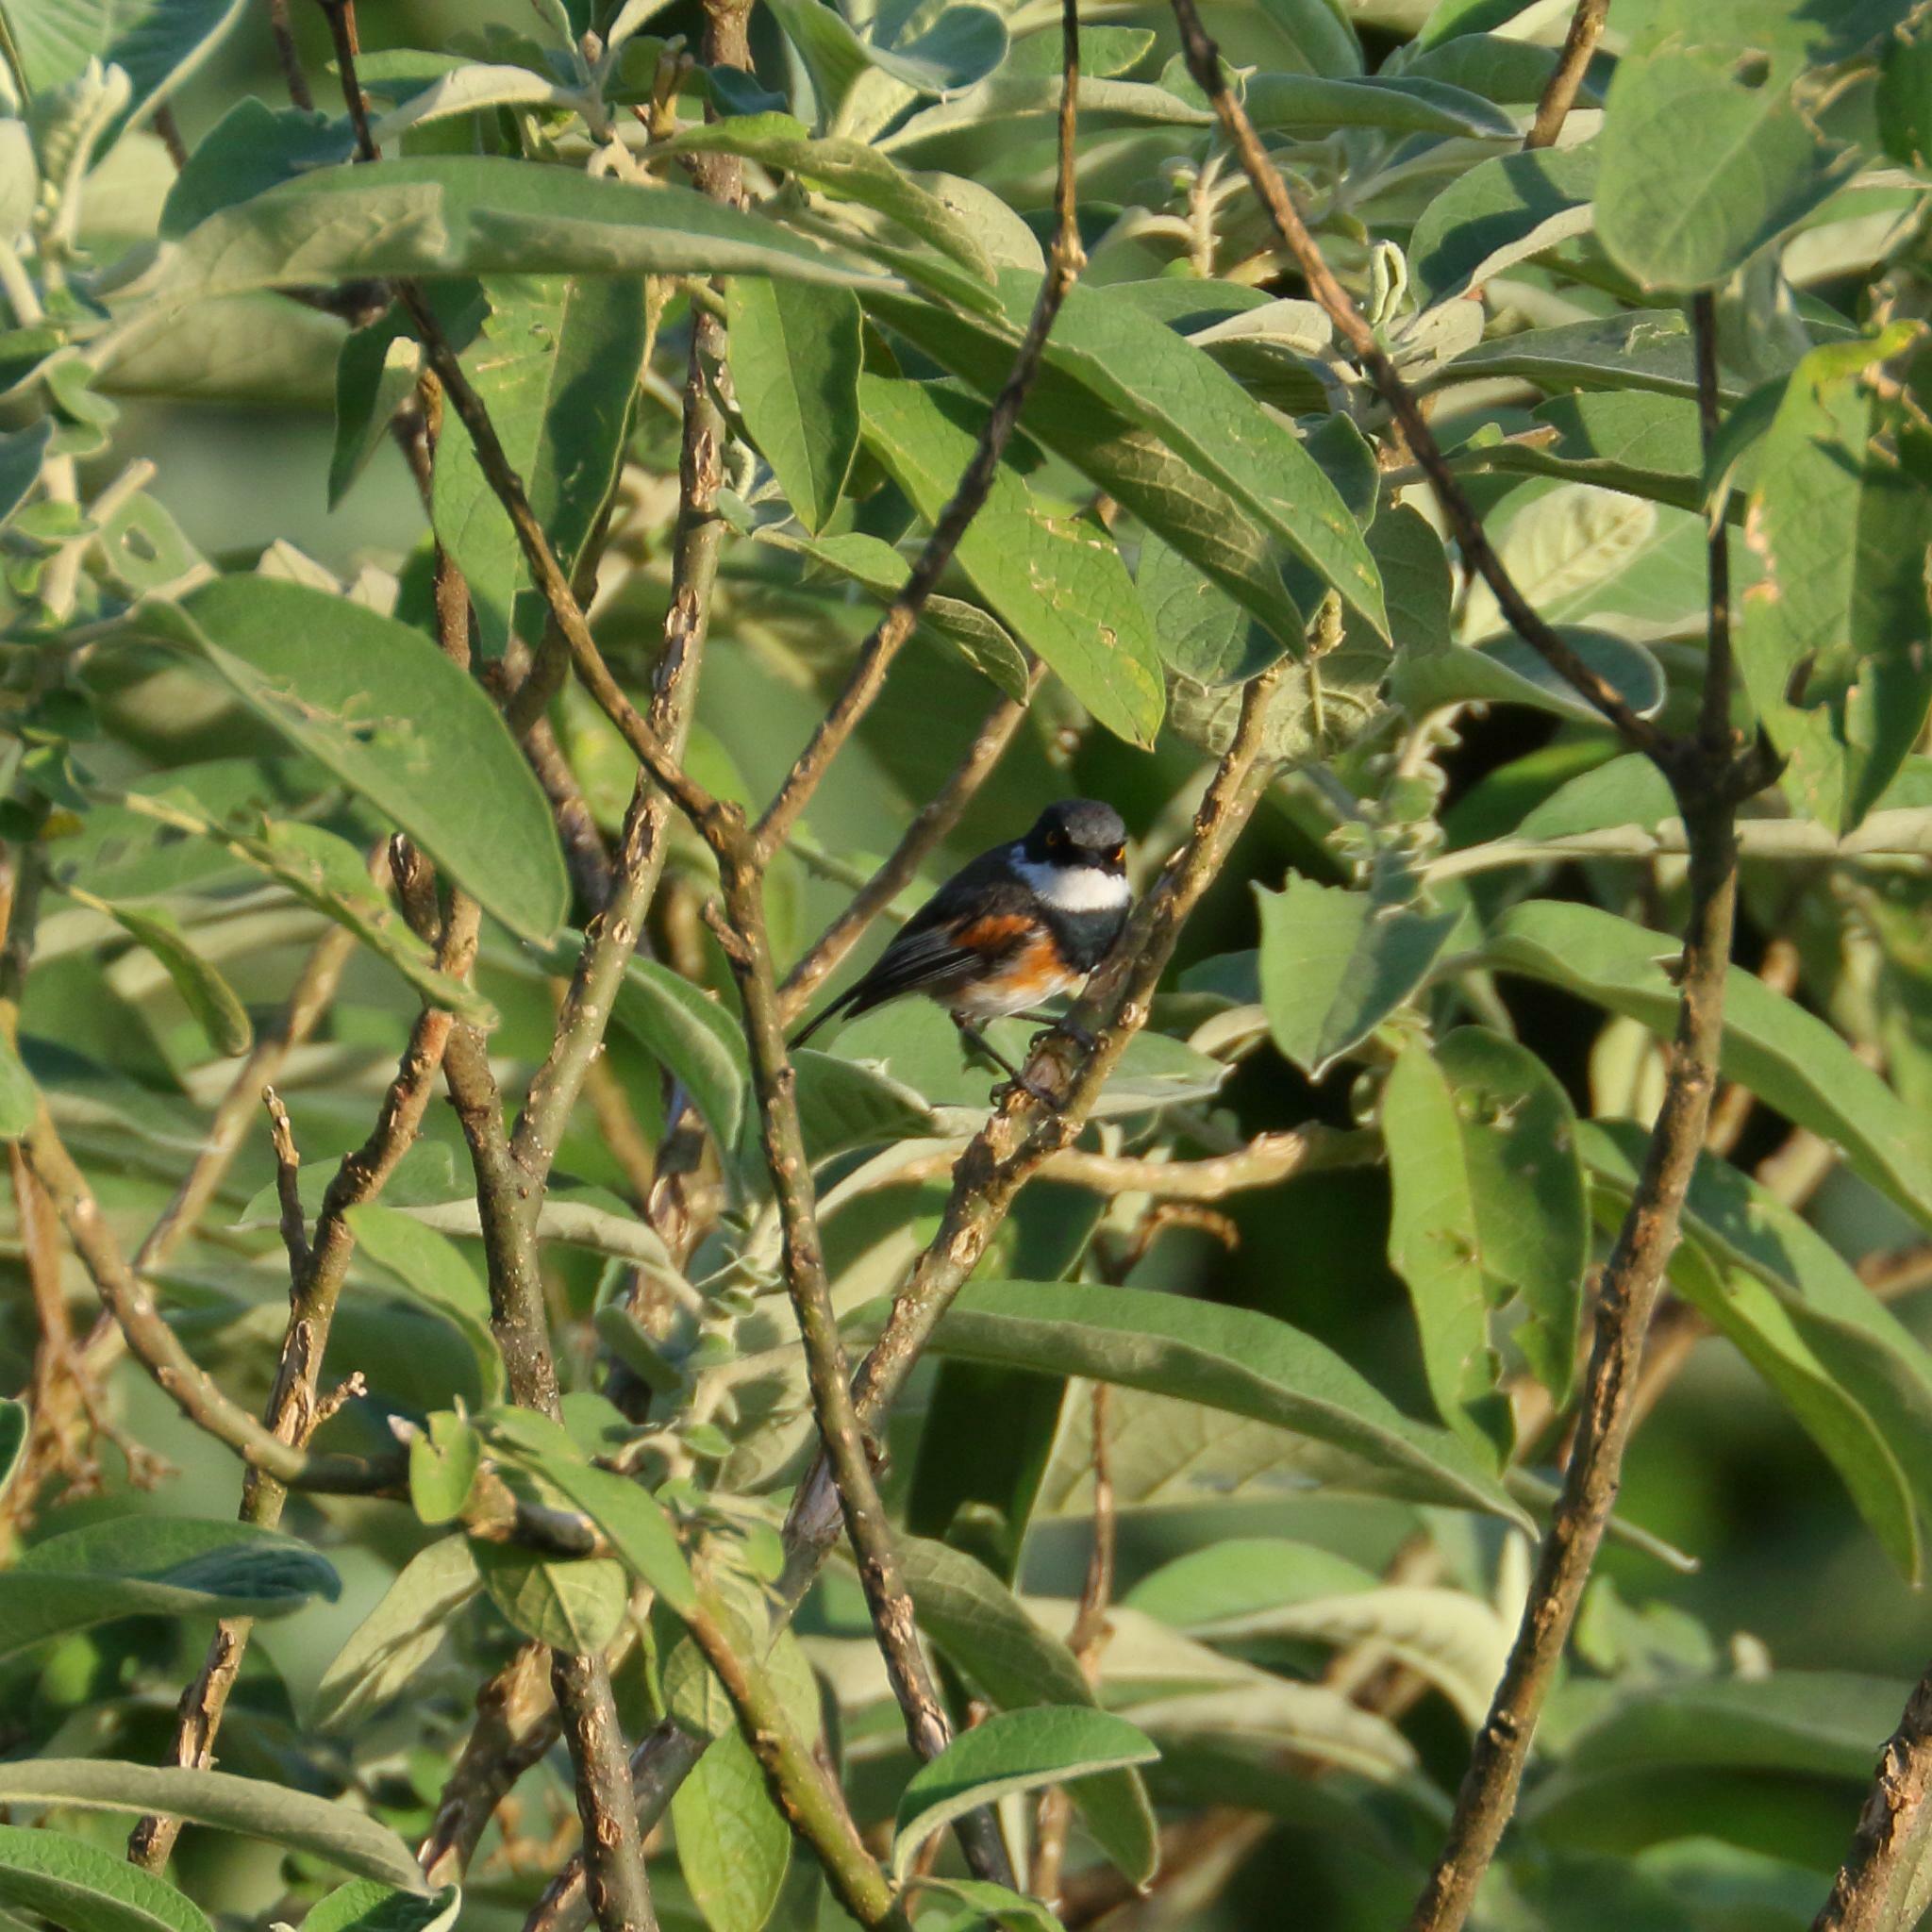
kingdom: Animalia
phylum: Chordata
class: Aves
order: Passeriformes
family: Platysteiridae
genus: Batis
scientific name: Batis capensis
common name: Cape batis
